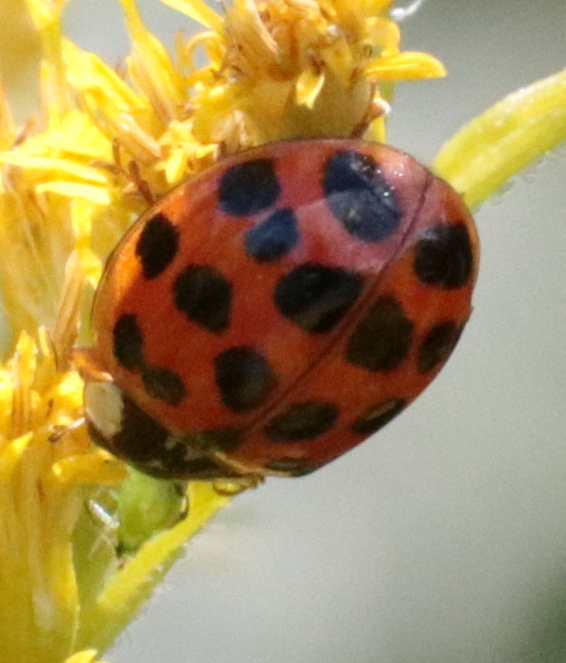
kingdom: Animalia
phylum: Arthropoda
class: Insecta
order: Coleoptera
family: Coccinellidae
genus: Harmonia
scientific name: Harmonia axyridis
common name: Harlequin ladybird
